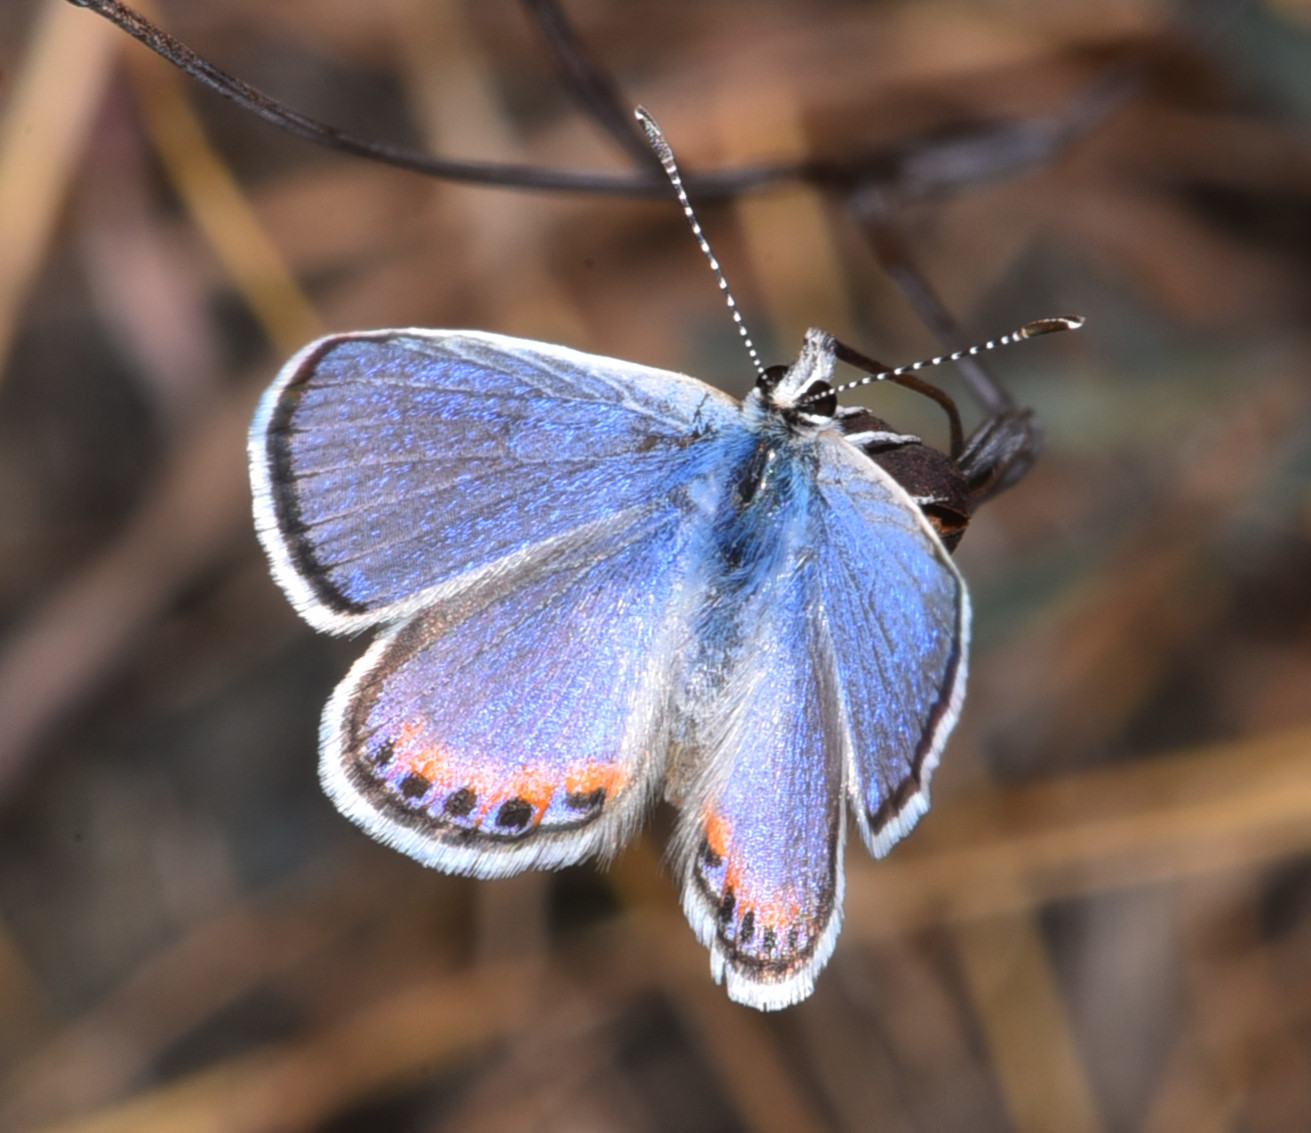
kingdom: Animalia
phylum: Arthropoda
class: Insecta
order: Lepidoptera
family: Lycaenidae
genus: Icaricia
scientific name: Icaricia acmon
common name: Acmon blue
